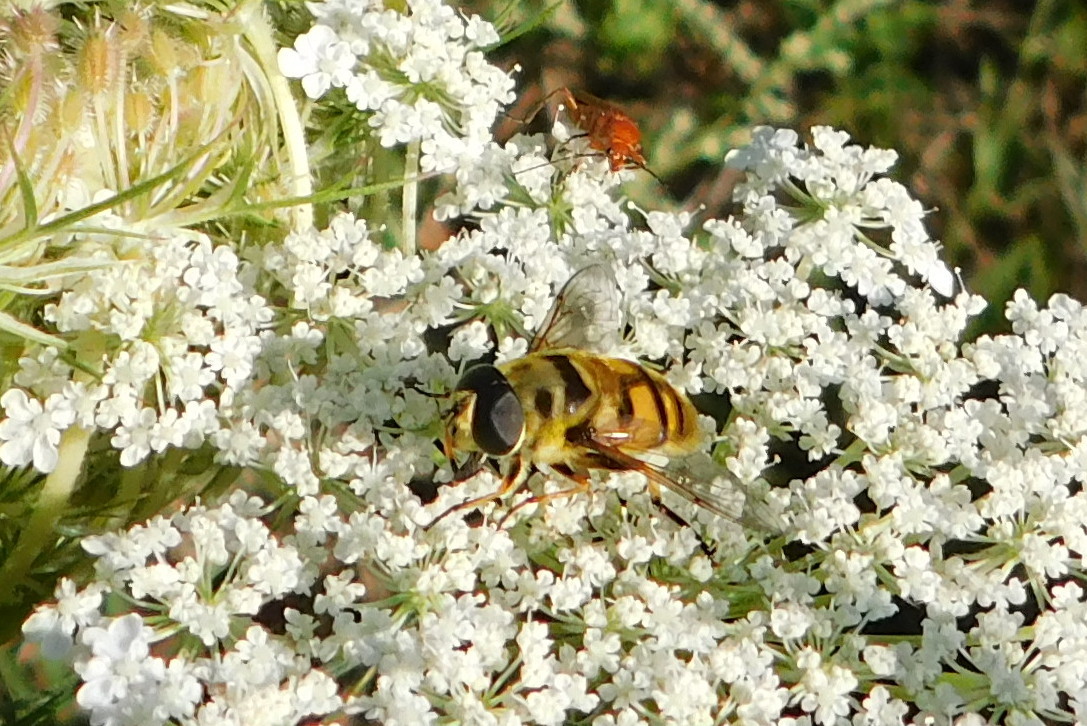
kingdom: Animalia
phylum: Arthropoda
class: Insecta
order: Diptera
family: Syrphidae
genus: Myathropa
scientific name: Myathropa florea
